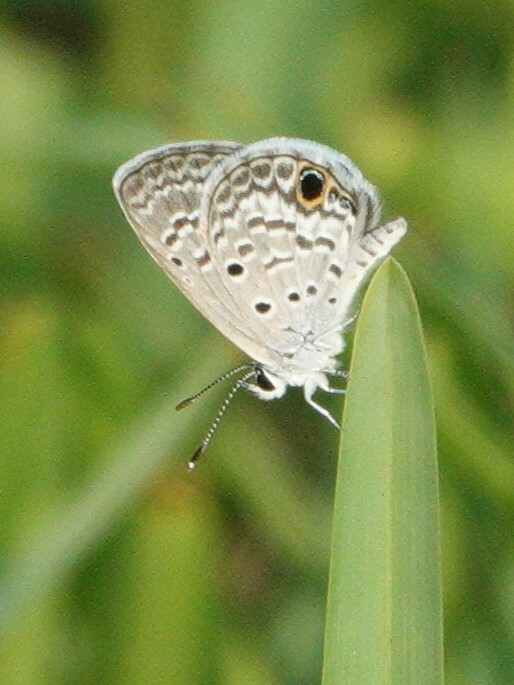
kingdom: Animalia
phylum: Arthropoda
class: Insecta
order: Lepidoptera
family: Lycaenidae
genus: Hemiargus
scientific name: Hemiargus ceraunus
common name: Ceraunus blue
